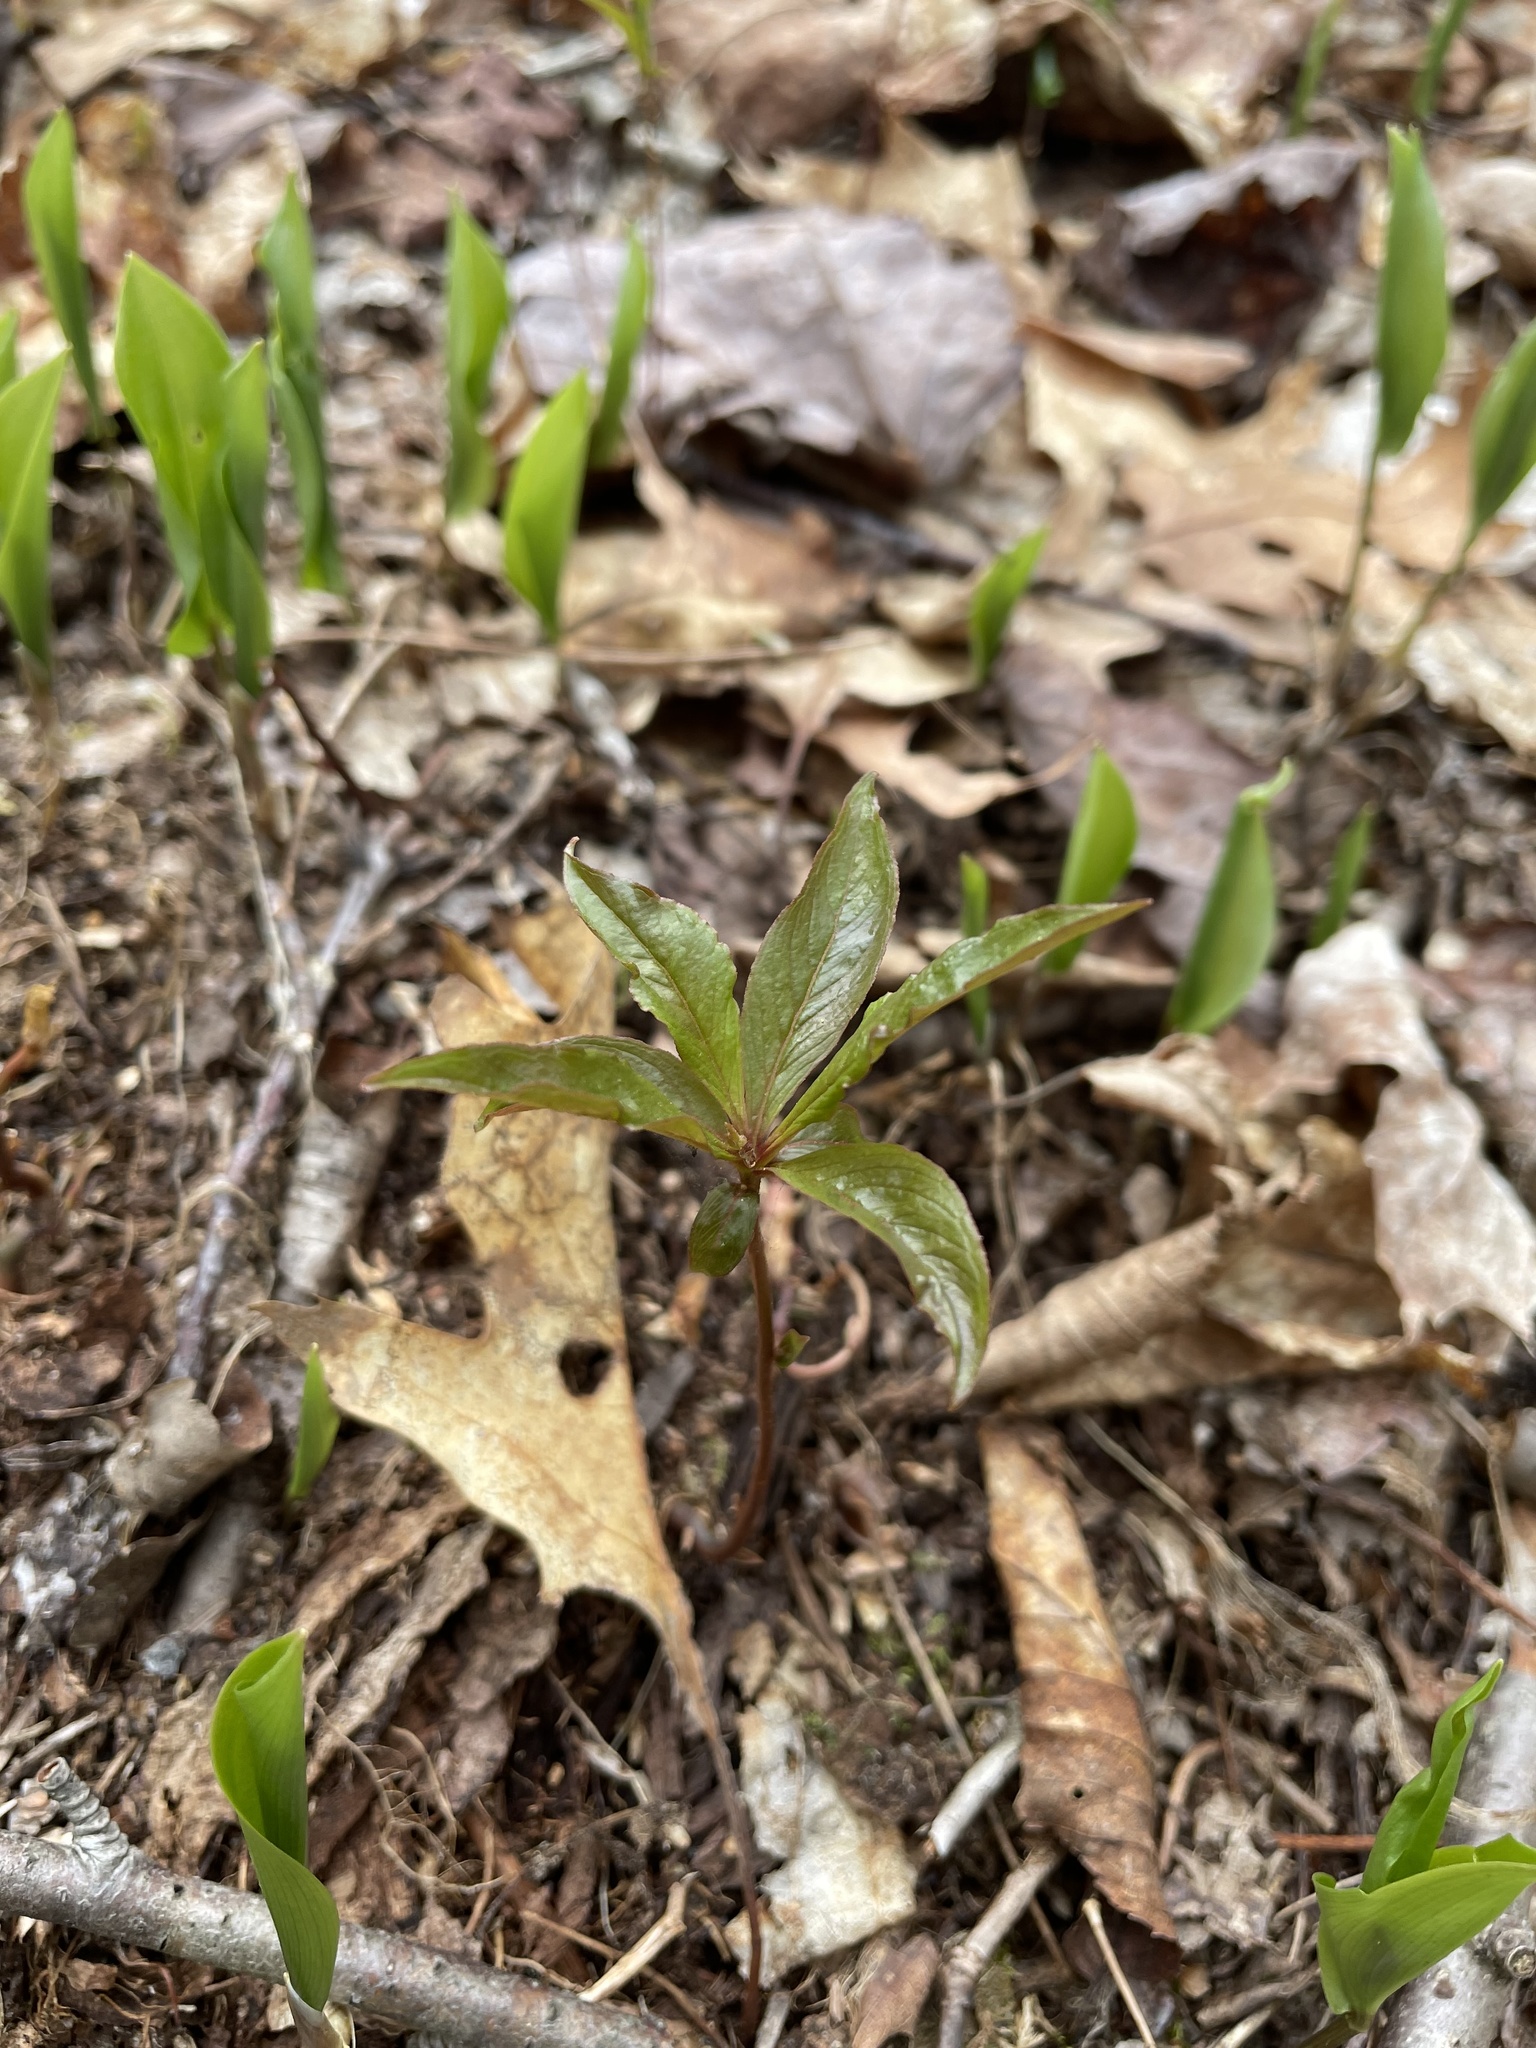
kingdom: Plantae
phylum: Tracheophyta
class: Magnoliopsida
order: Ericales
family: Primulaceae
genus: Lysimachia
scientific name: Lysimachia borealis
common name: American starflower
